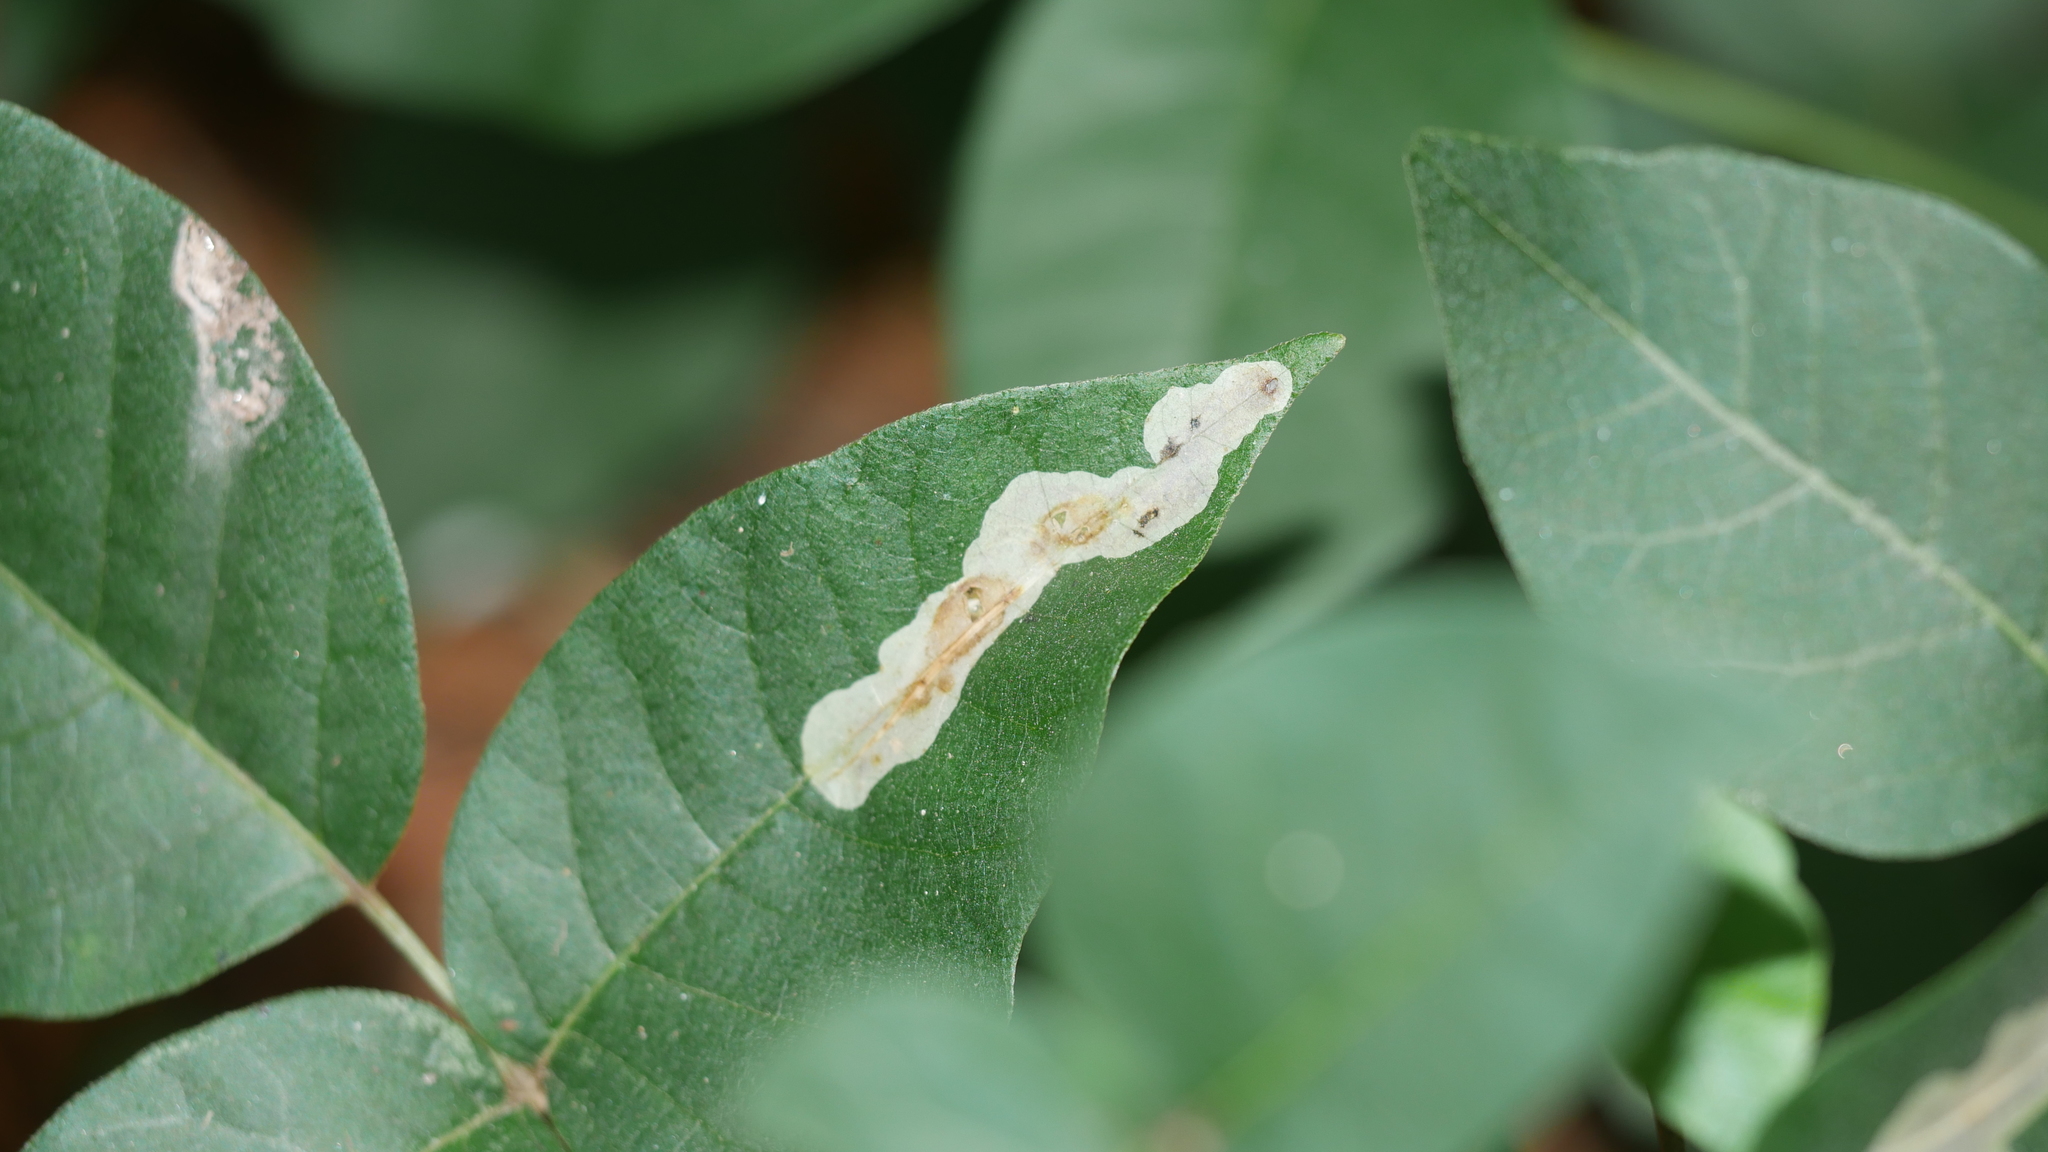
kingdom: Animalia
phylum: Arthropoda
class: Insecta
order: Lepidoptera
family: Gracillariidae
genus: Cameraria
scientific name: Cameraria guttifinitella
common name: Poison ivy leaf-miner moth
